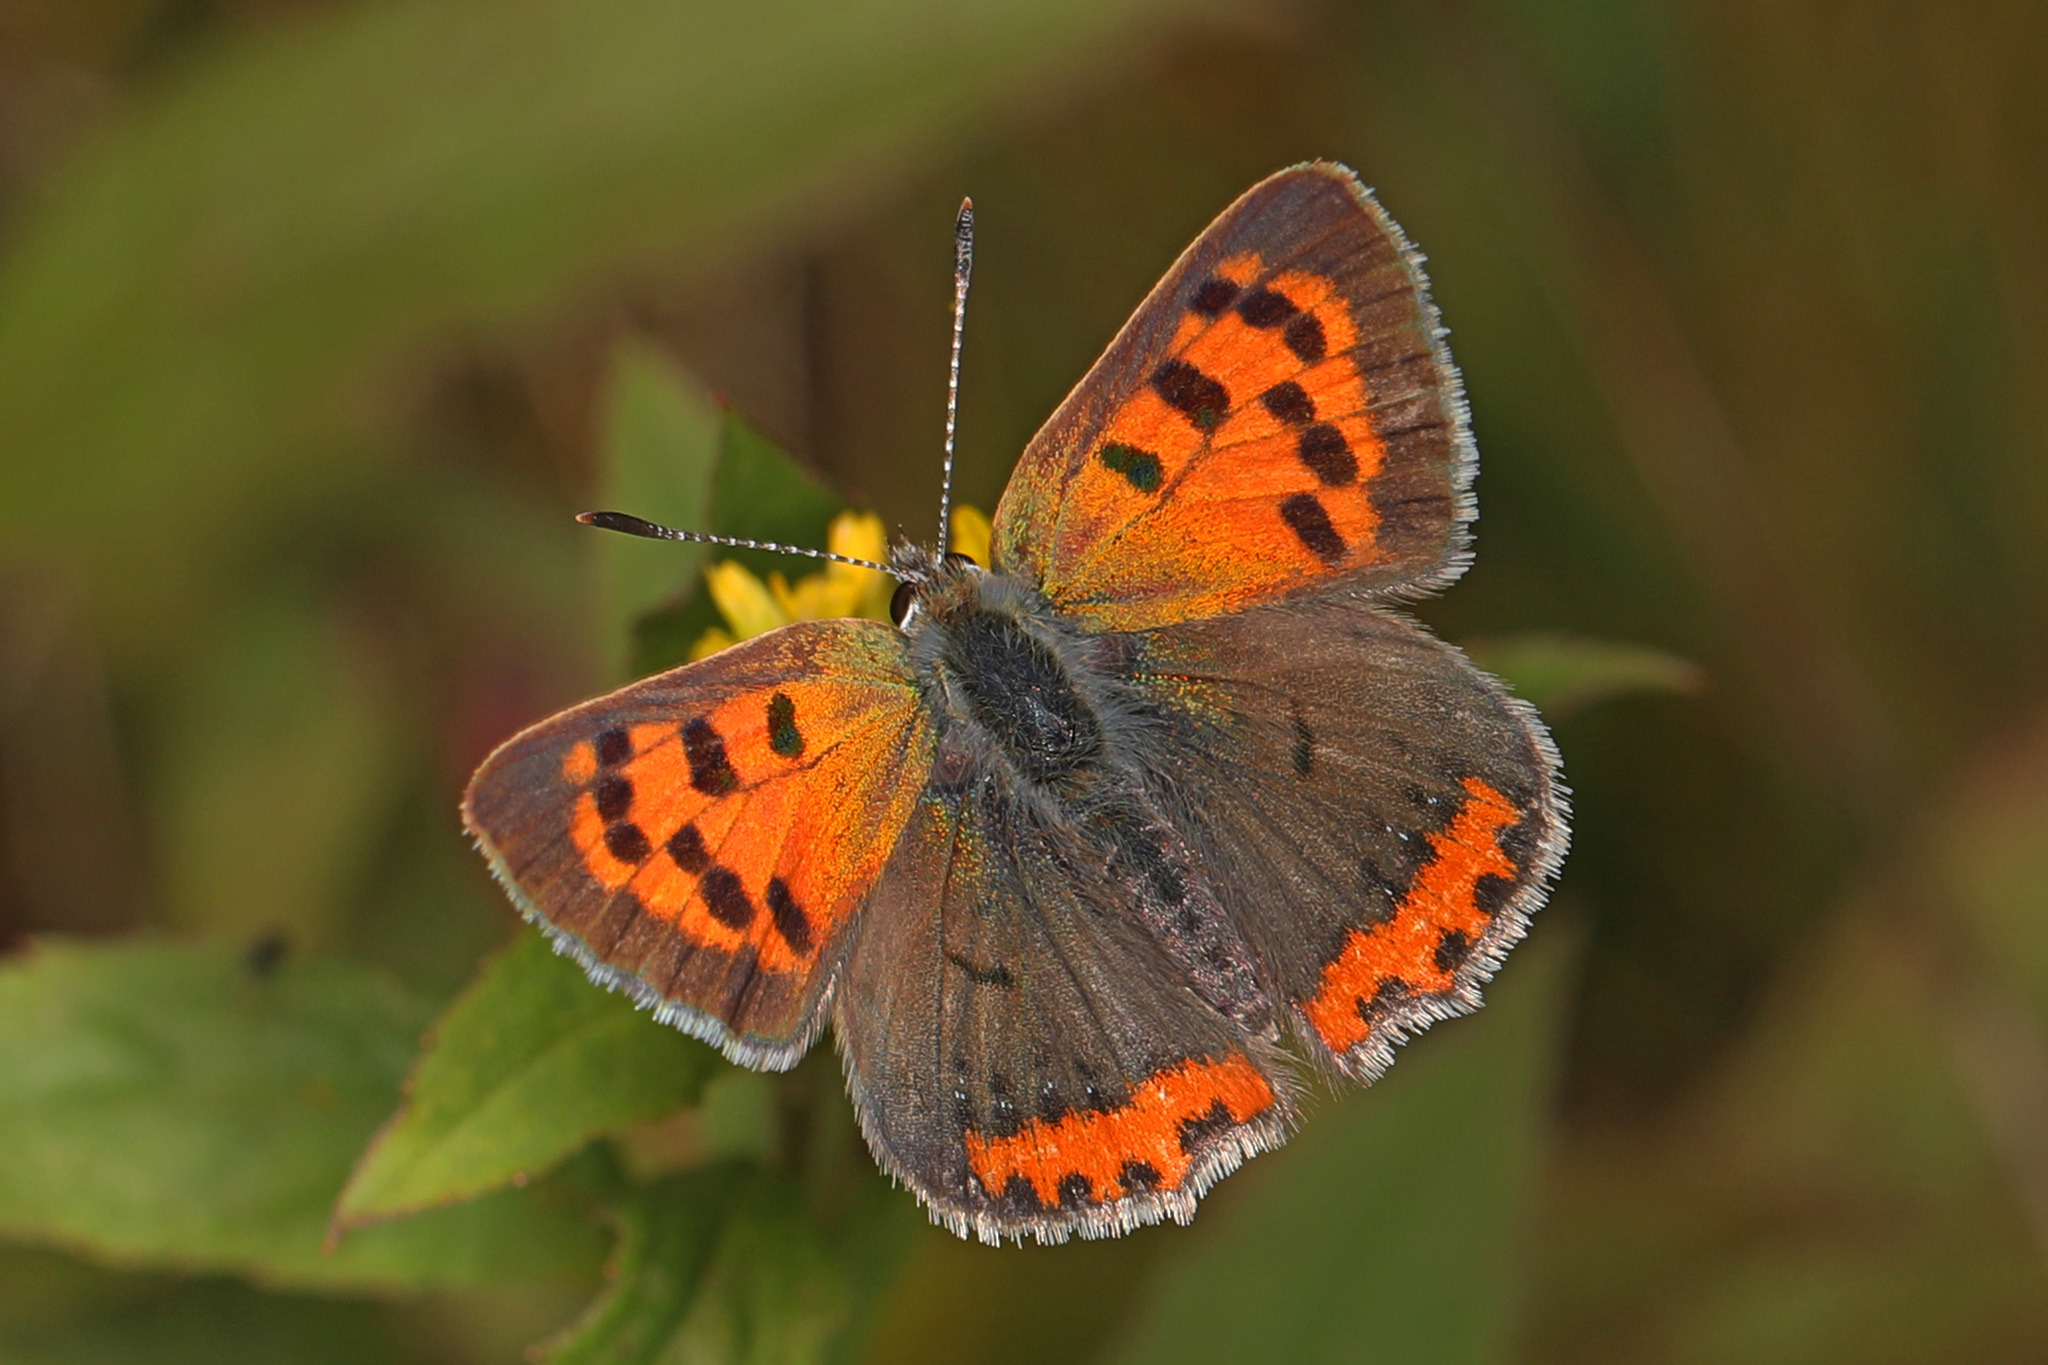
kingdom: Animalia
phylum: Arthropoda
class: Insecta
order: Lepidoptera
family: Lycaenidae
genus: Lycaena
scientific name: Lycaena hypophlaeas
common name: American copper
